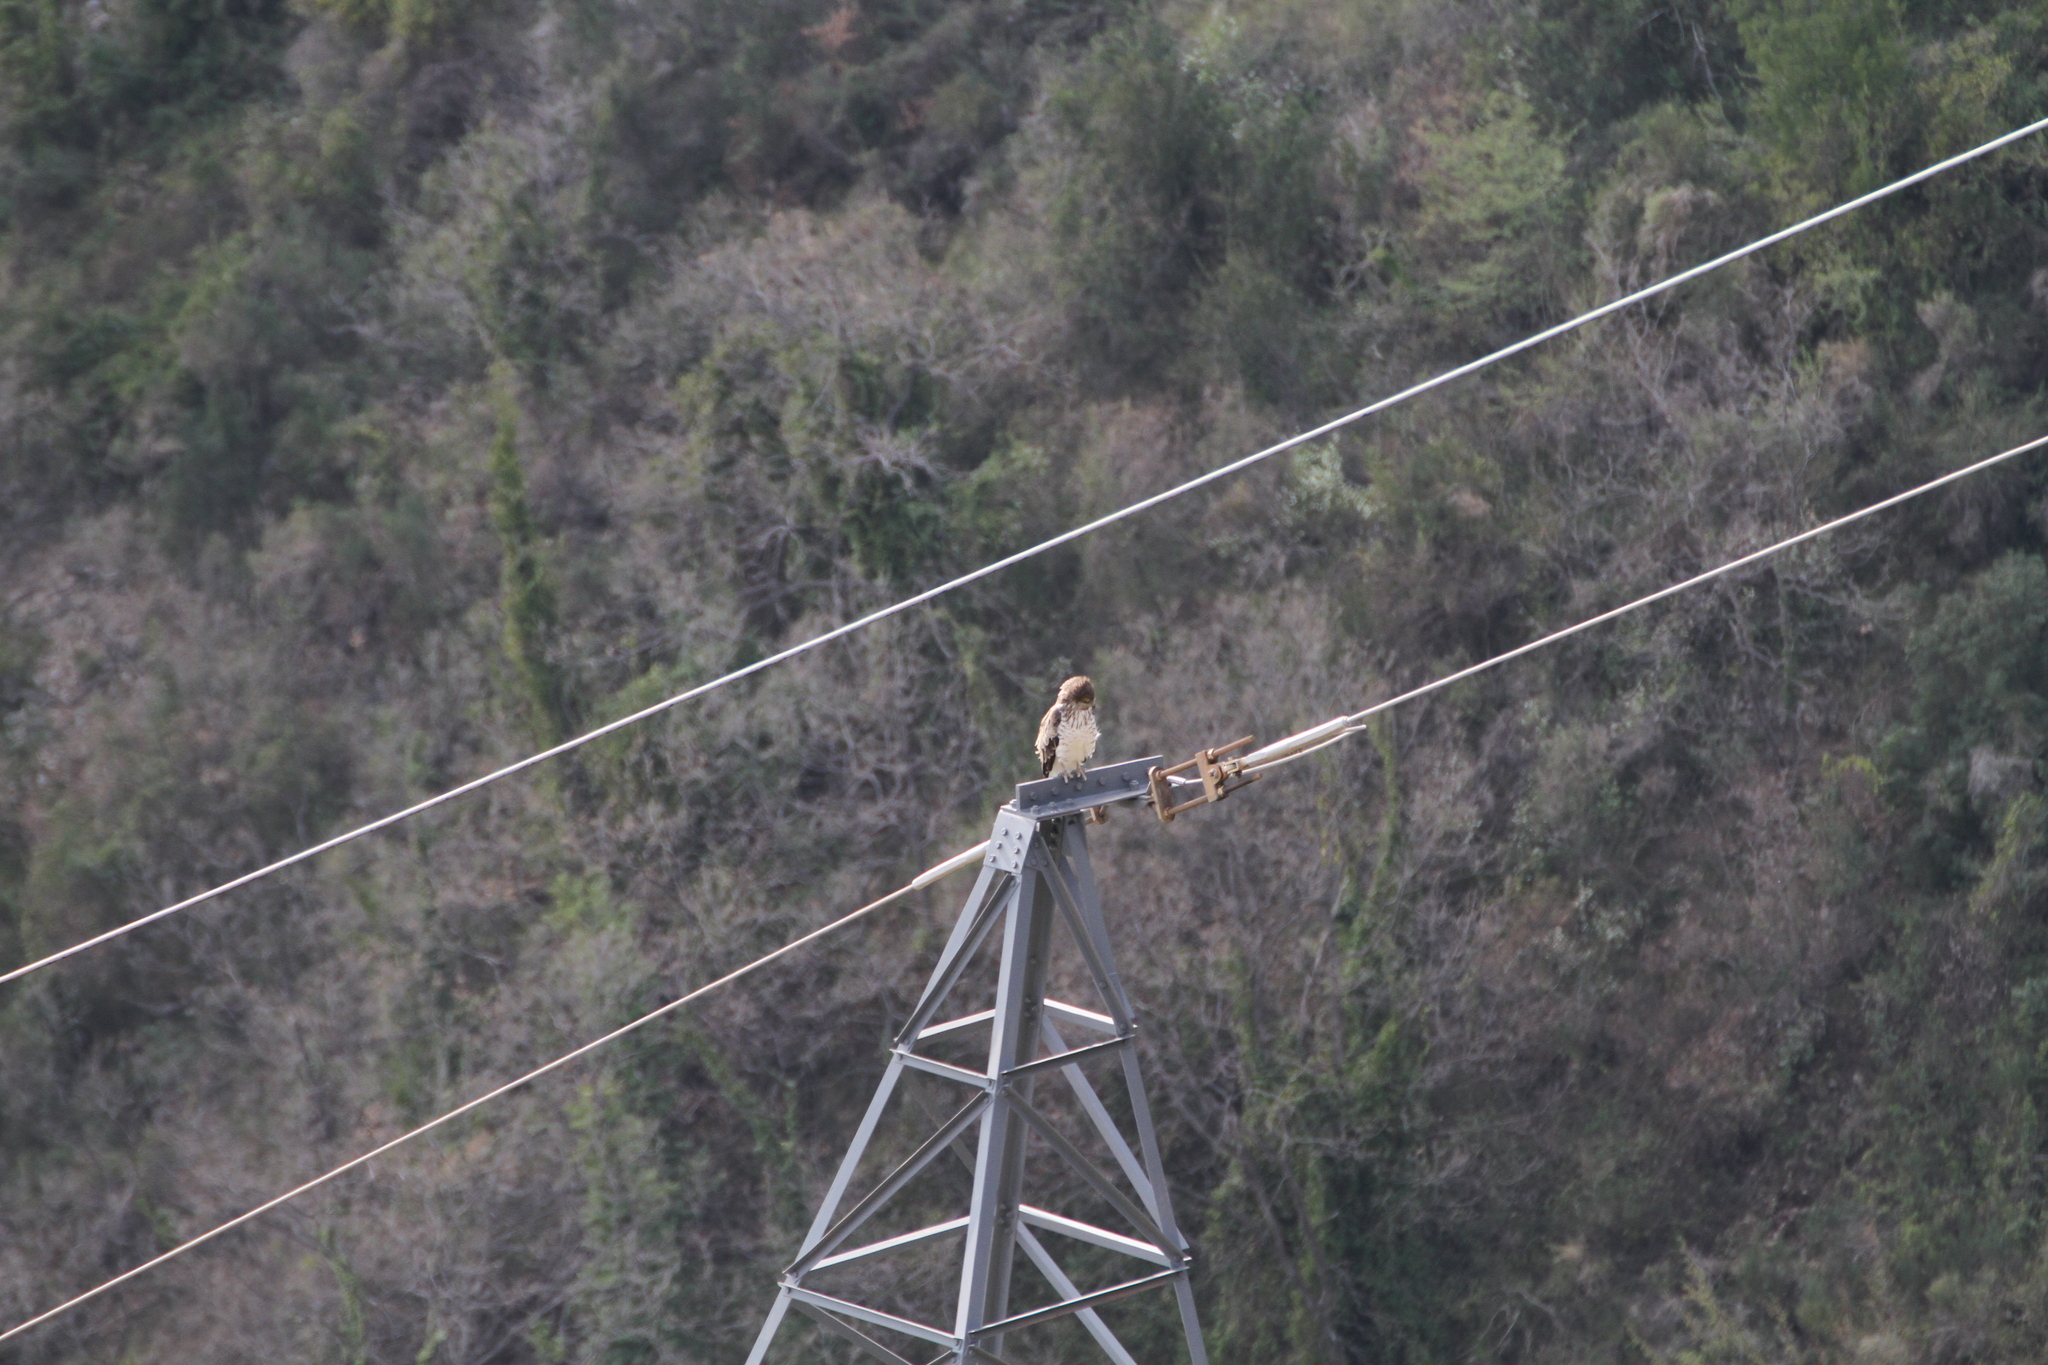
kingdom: Animalia
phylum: Chordata
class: Aves
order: Accipitriformes
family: Accipitridae
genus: Circaetus
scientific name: Circaetus gallicus
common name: Short-toed snake eagle
